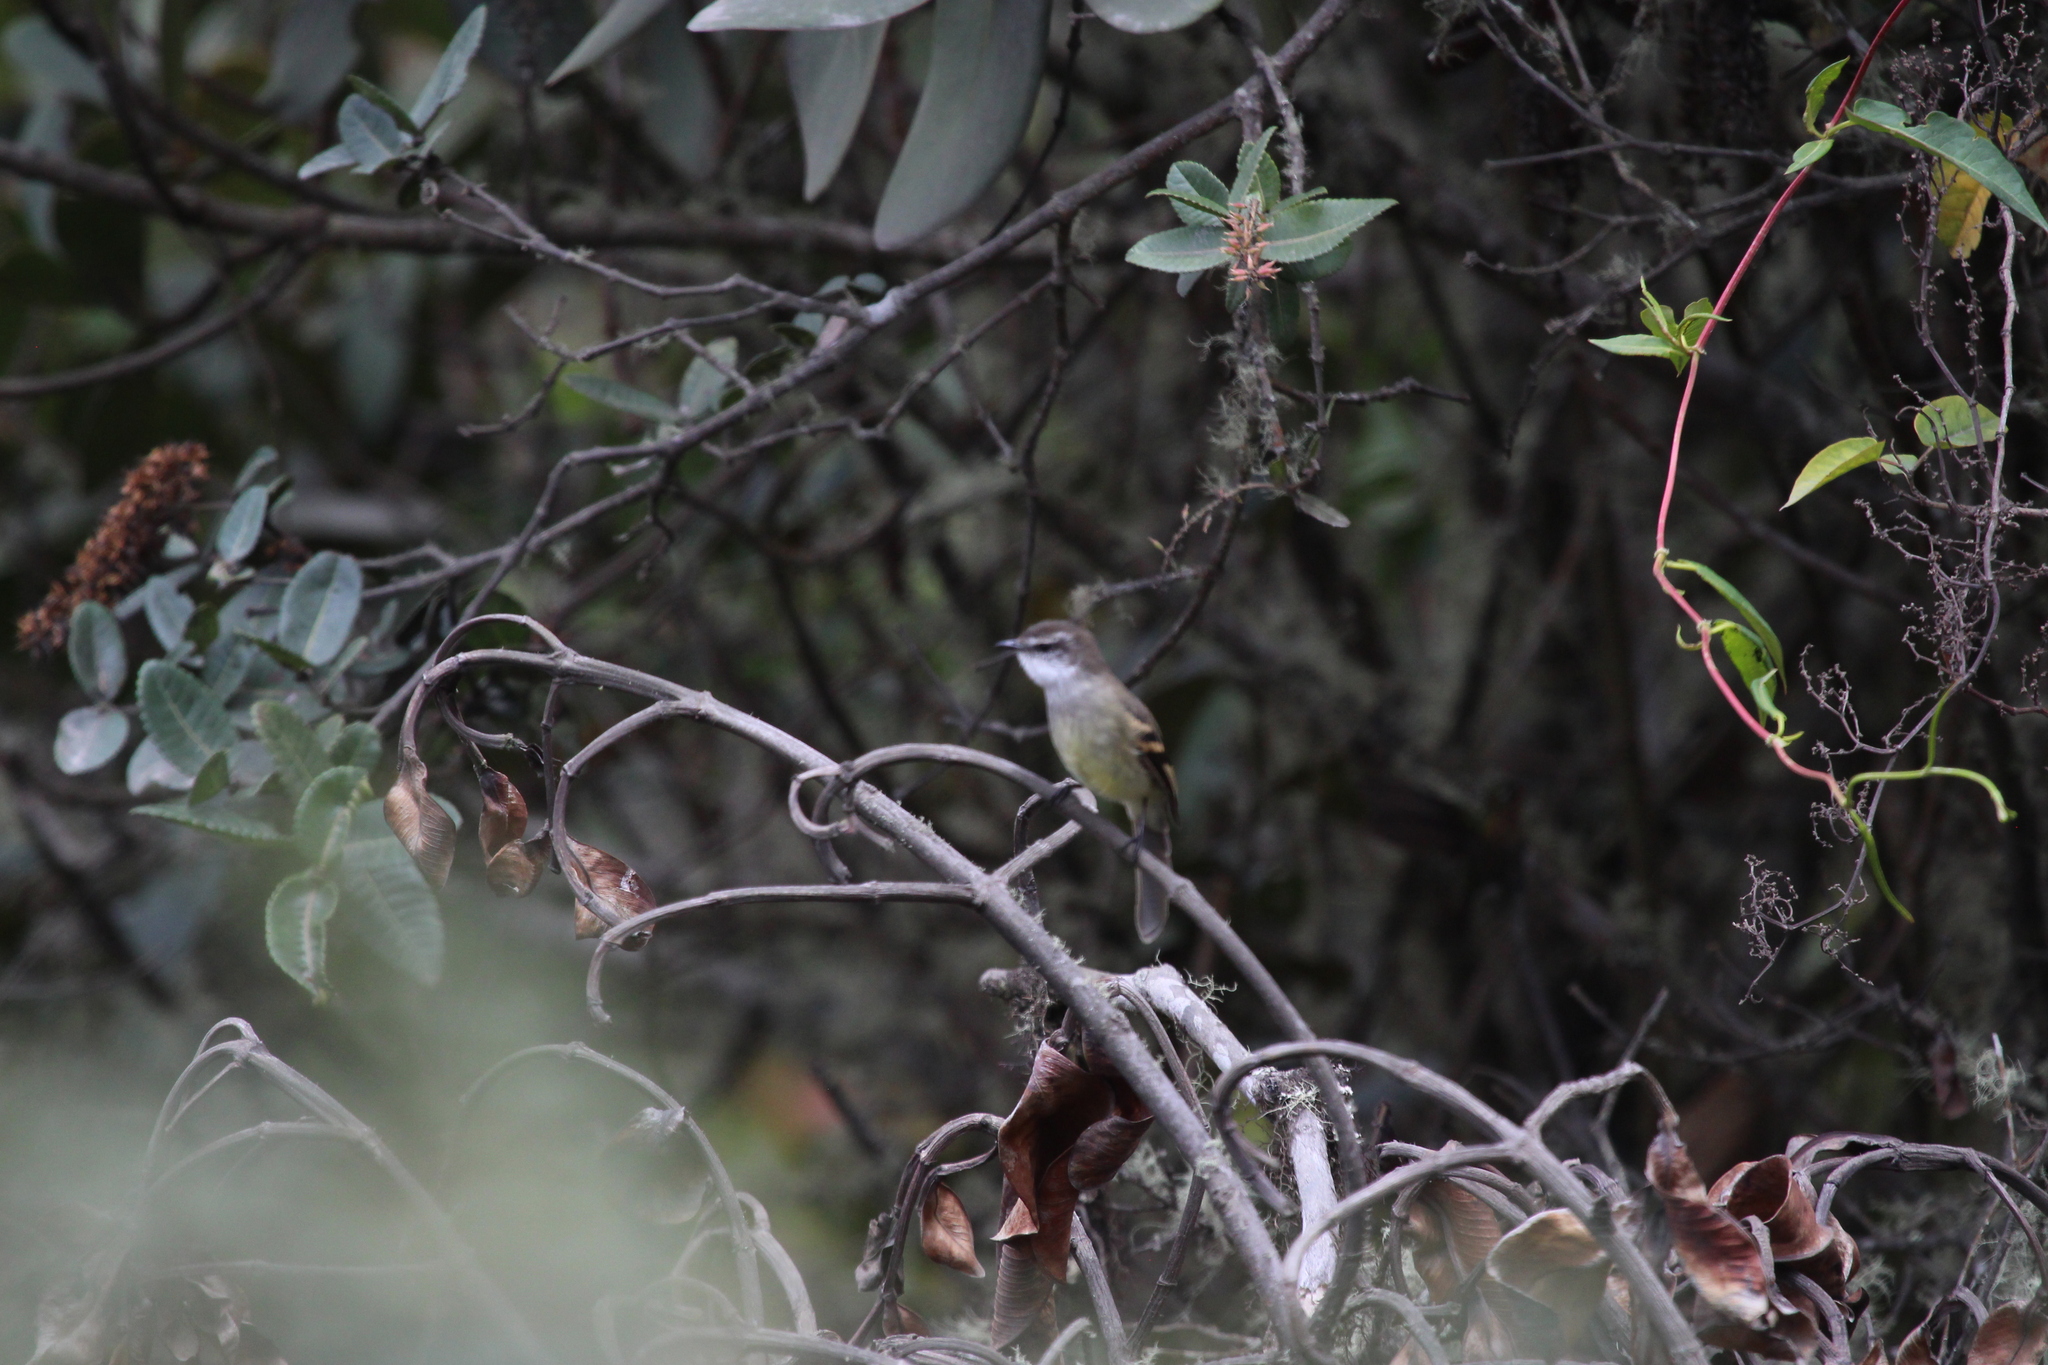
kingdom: Animalia
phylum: Chordata
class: Aves
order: Passeriformes
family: Tyrannidae
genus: Mecocerculus
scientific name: Mecocerculus leucophrys
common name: White-throated tyrannulet
